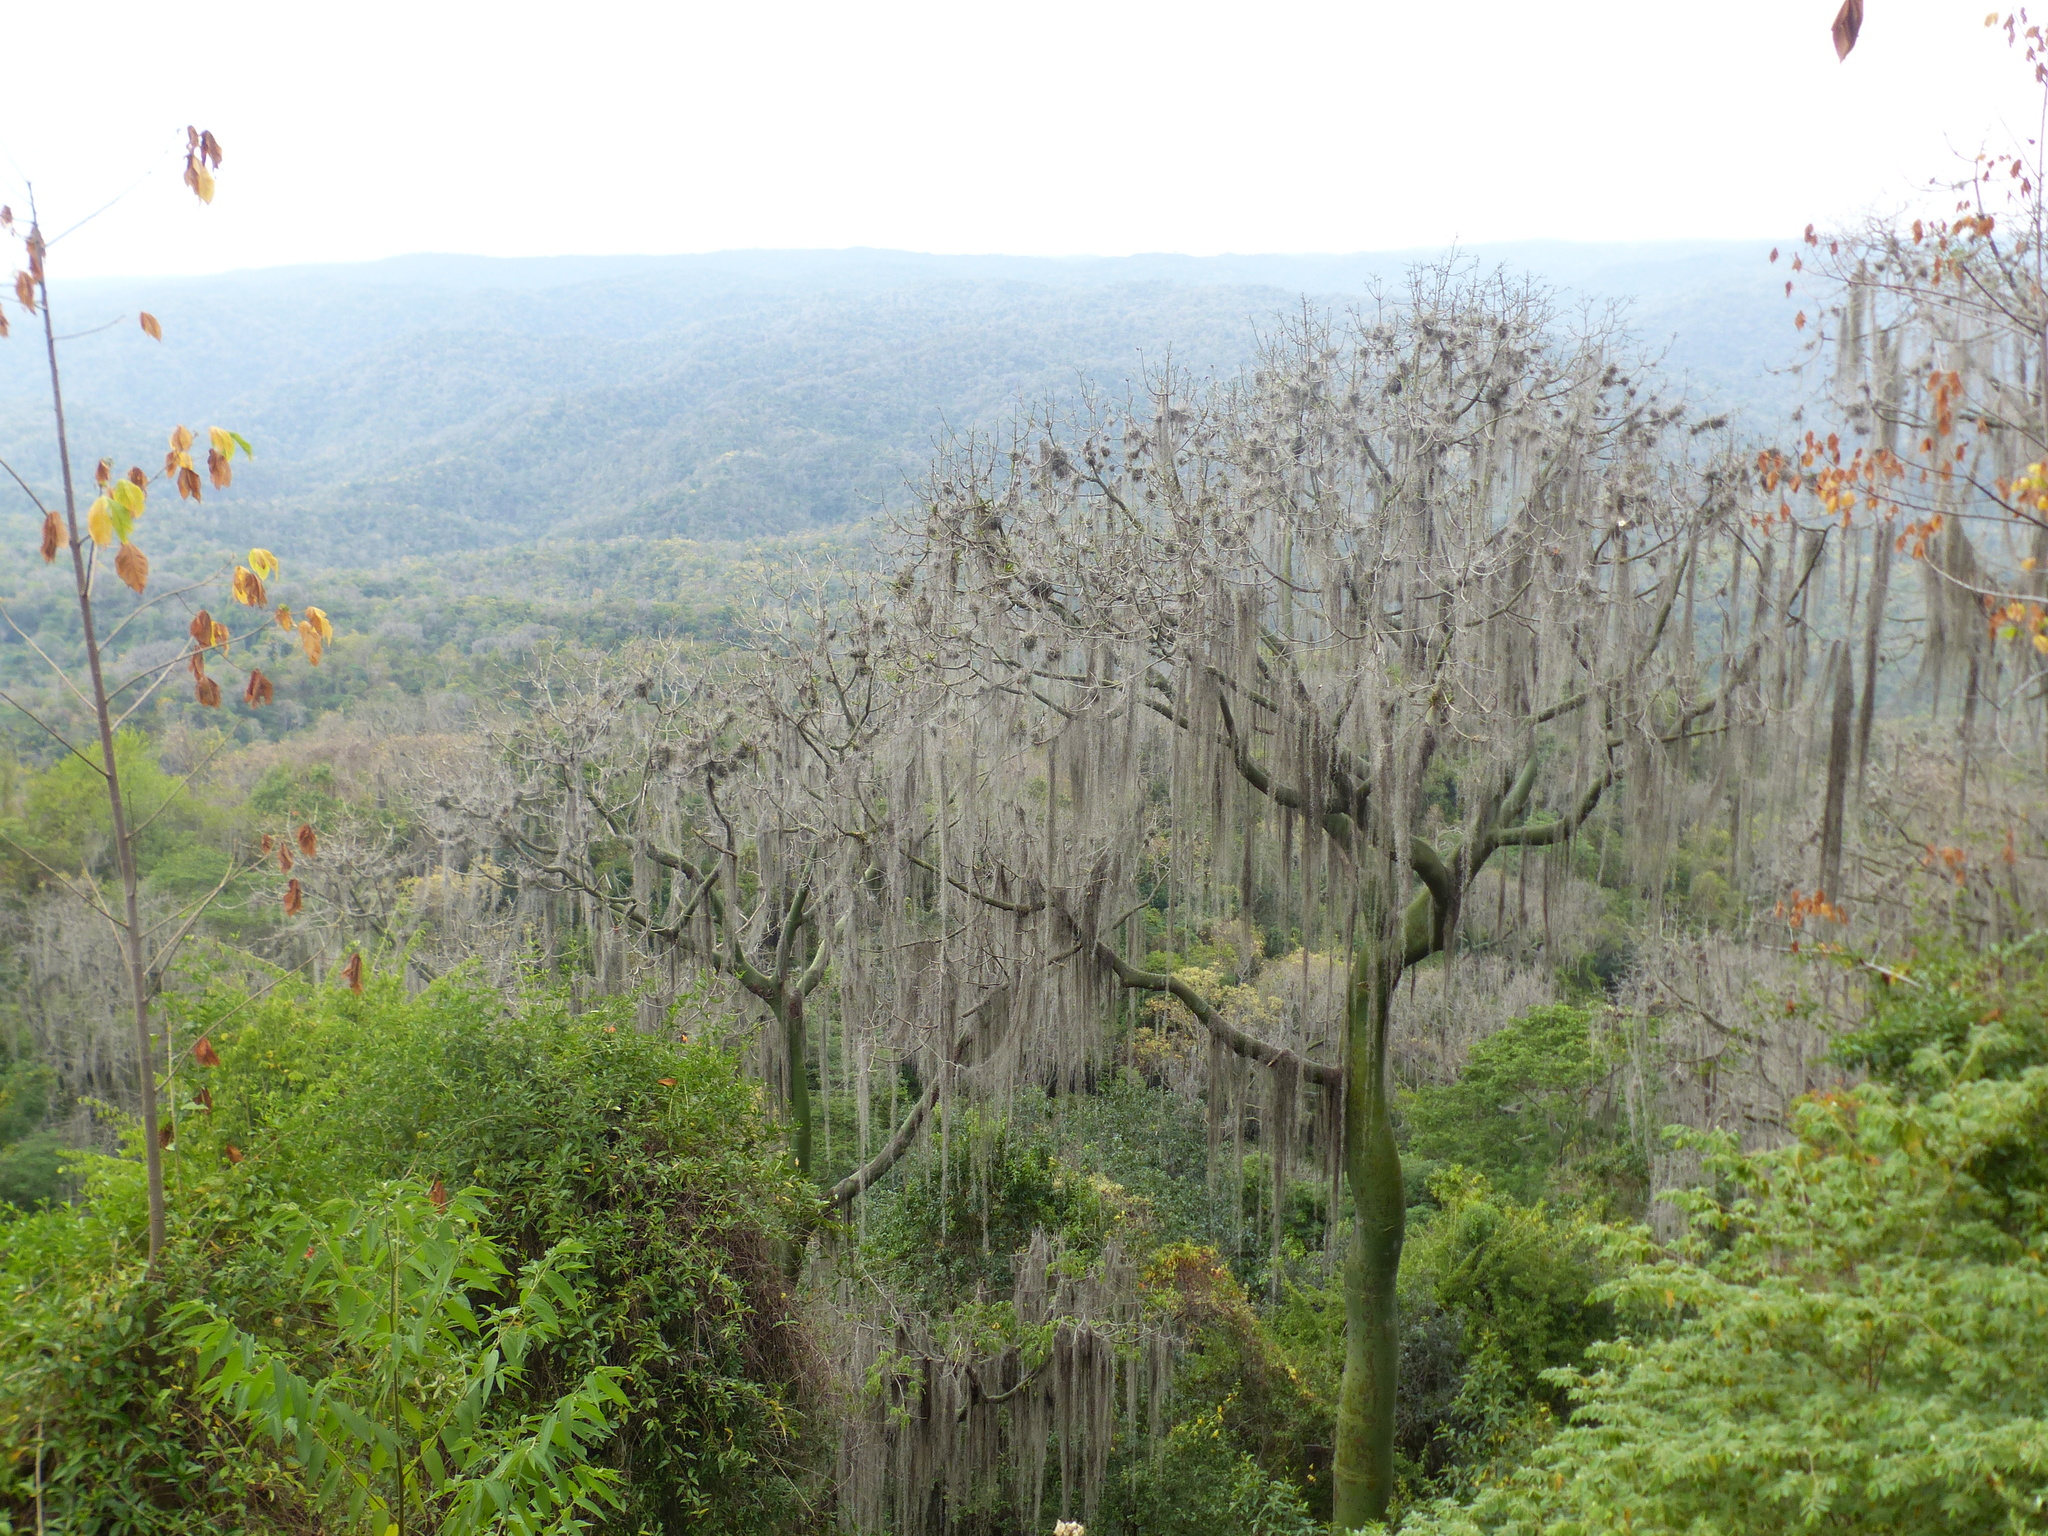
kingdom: Plantae
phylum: Tracheophyta
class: Magnoliopsida
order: Malvales
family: Malvaceae
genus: Ceiba
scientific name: Ceiba trischistandra
